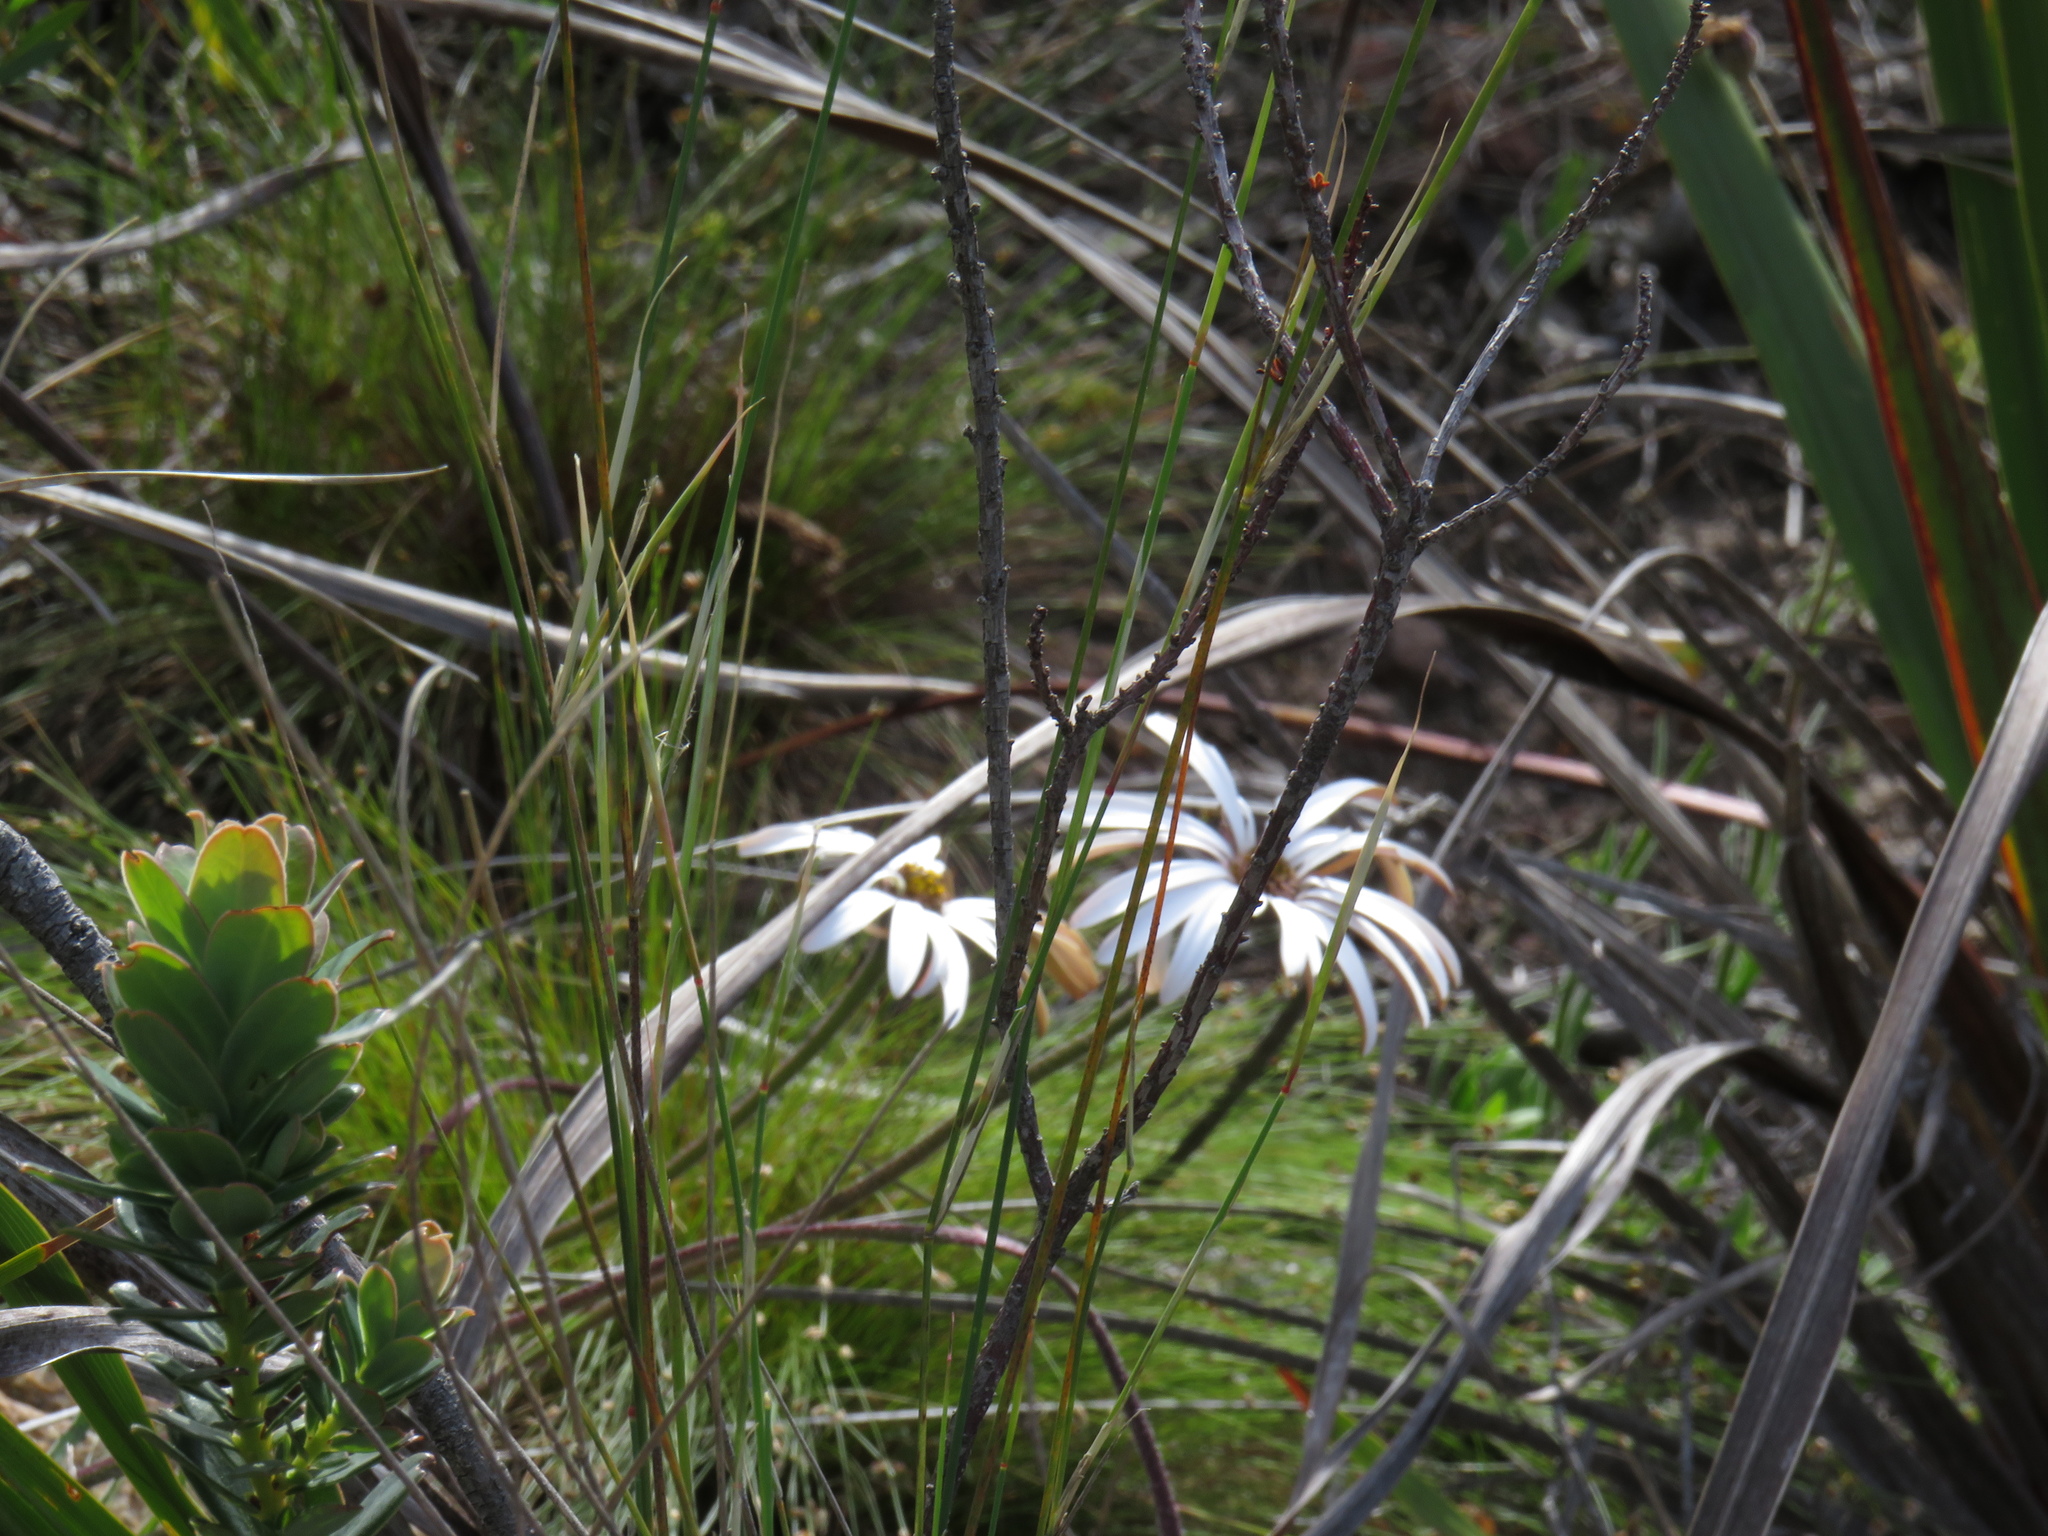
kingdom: Plantae
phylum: Tracheophyta
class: Magnoliopsida
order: Asterales
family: Asteraceae
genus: Dimorphotheca
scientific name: Dimorphotheca nudicaulis
